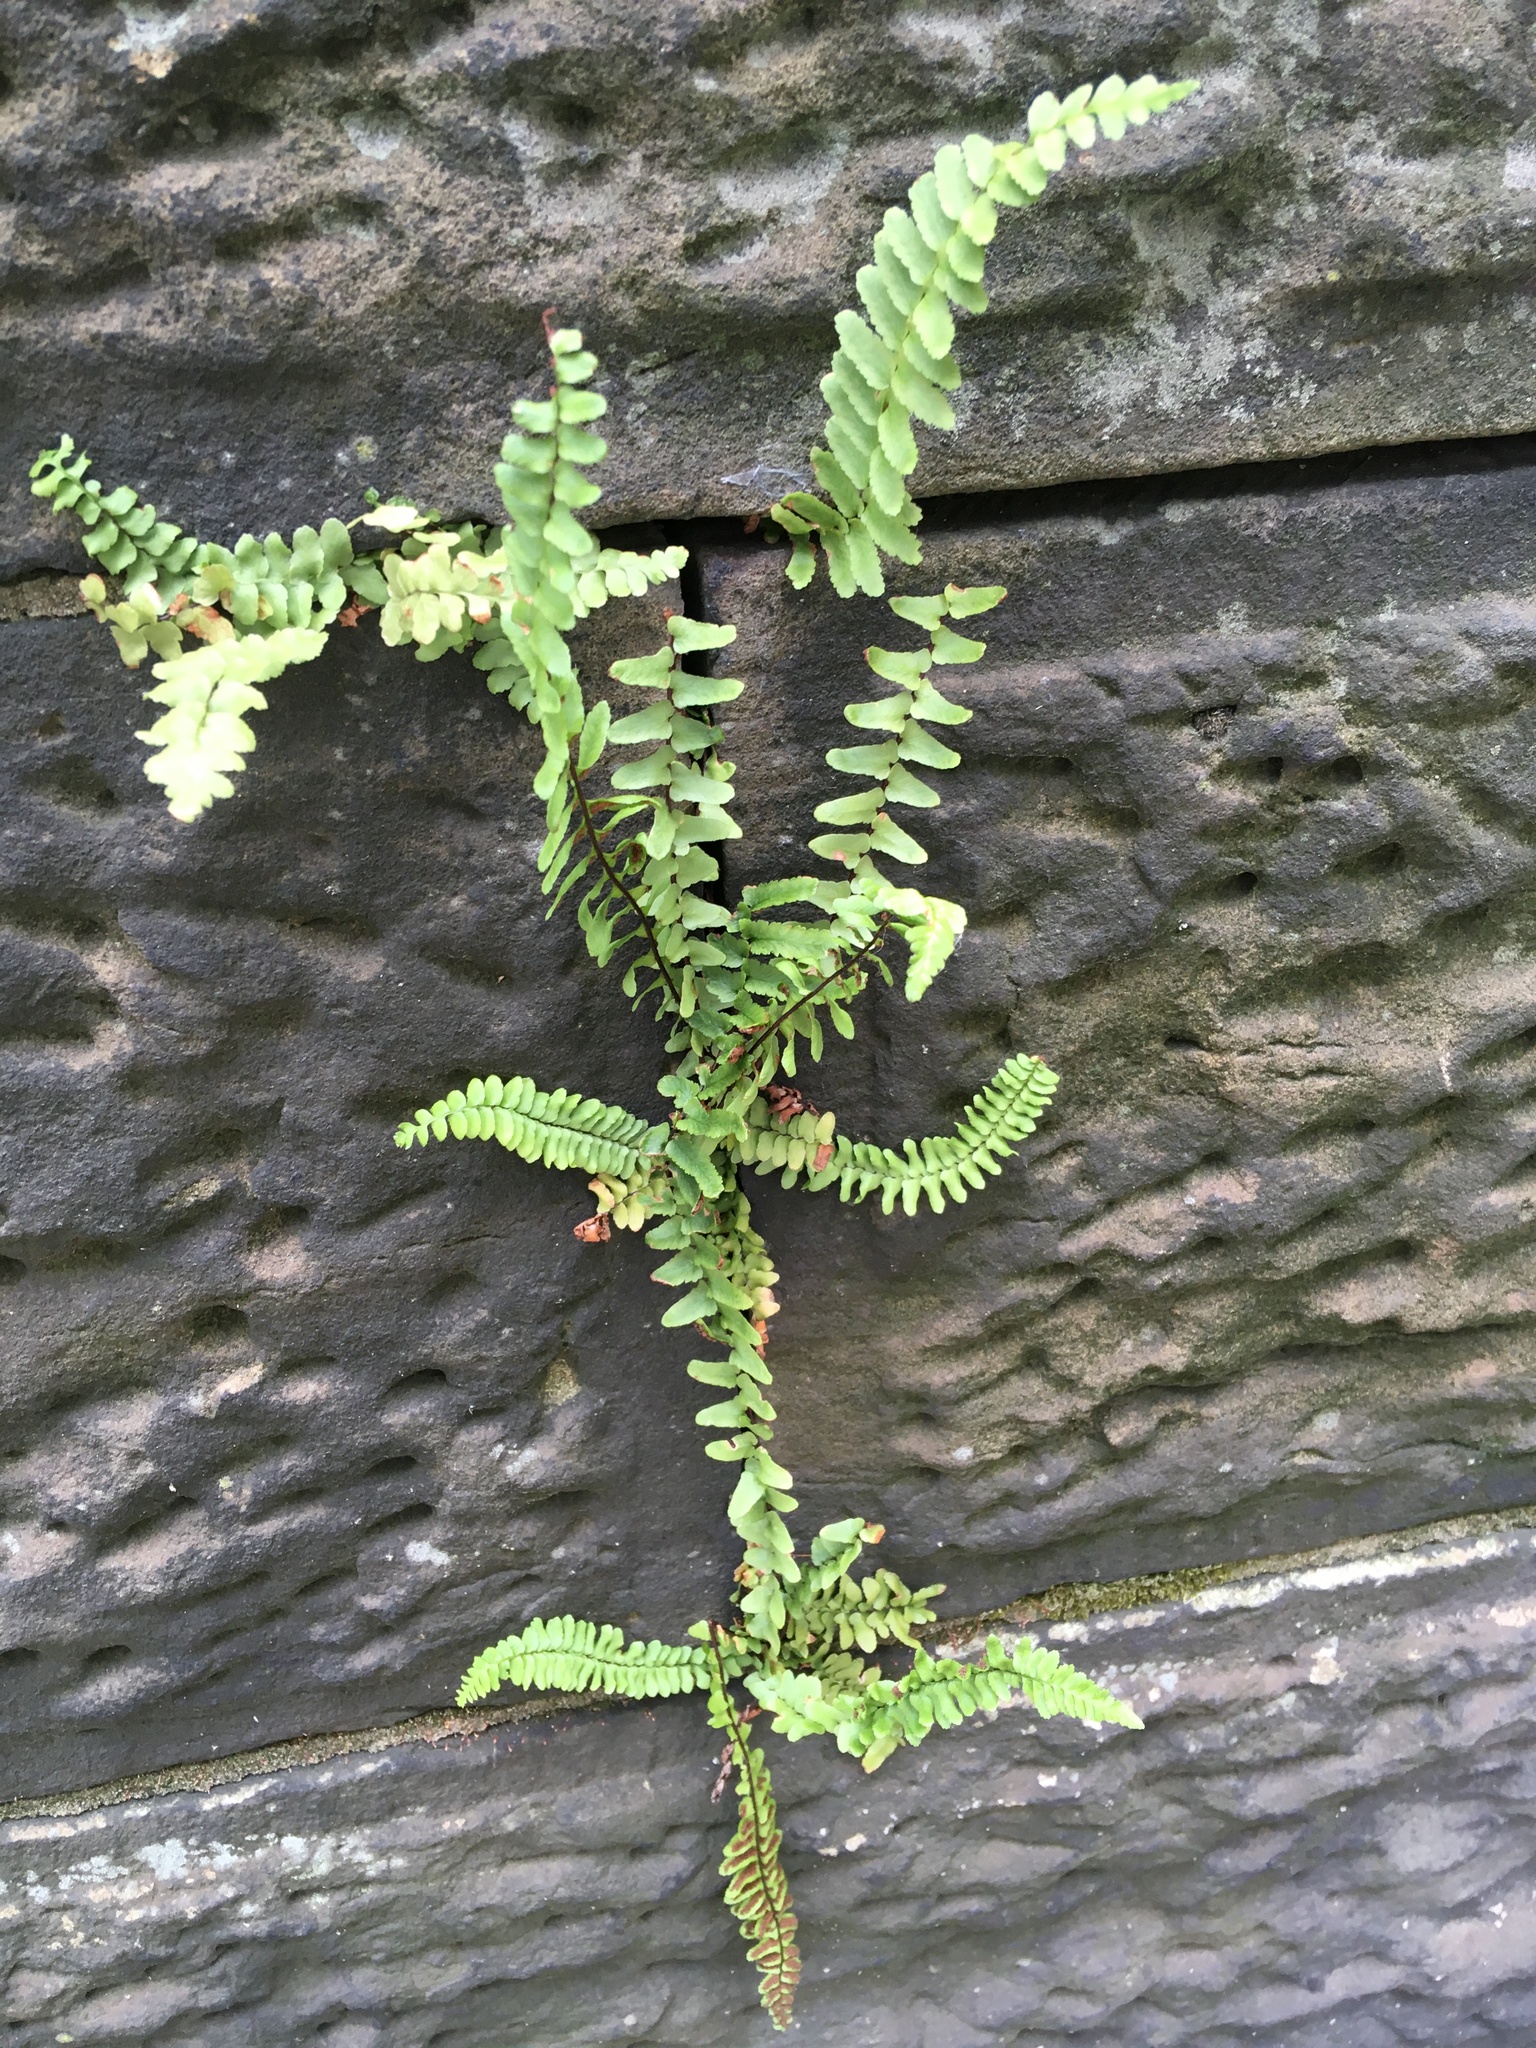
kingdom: Plantae
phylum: Tracheophyta
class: Polypodiopsida
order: Polypodiales
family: Aspleniaceae
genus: Asplenium
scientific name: Asplenium platyneuron
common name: Ebony spleenwort
